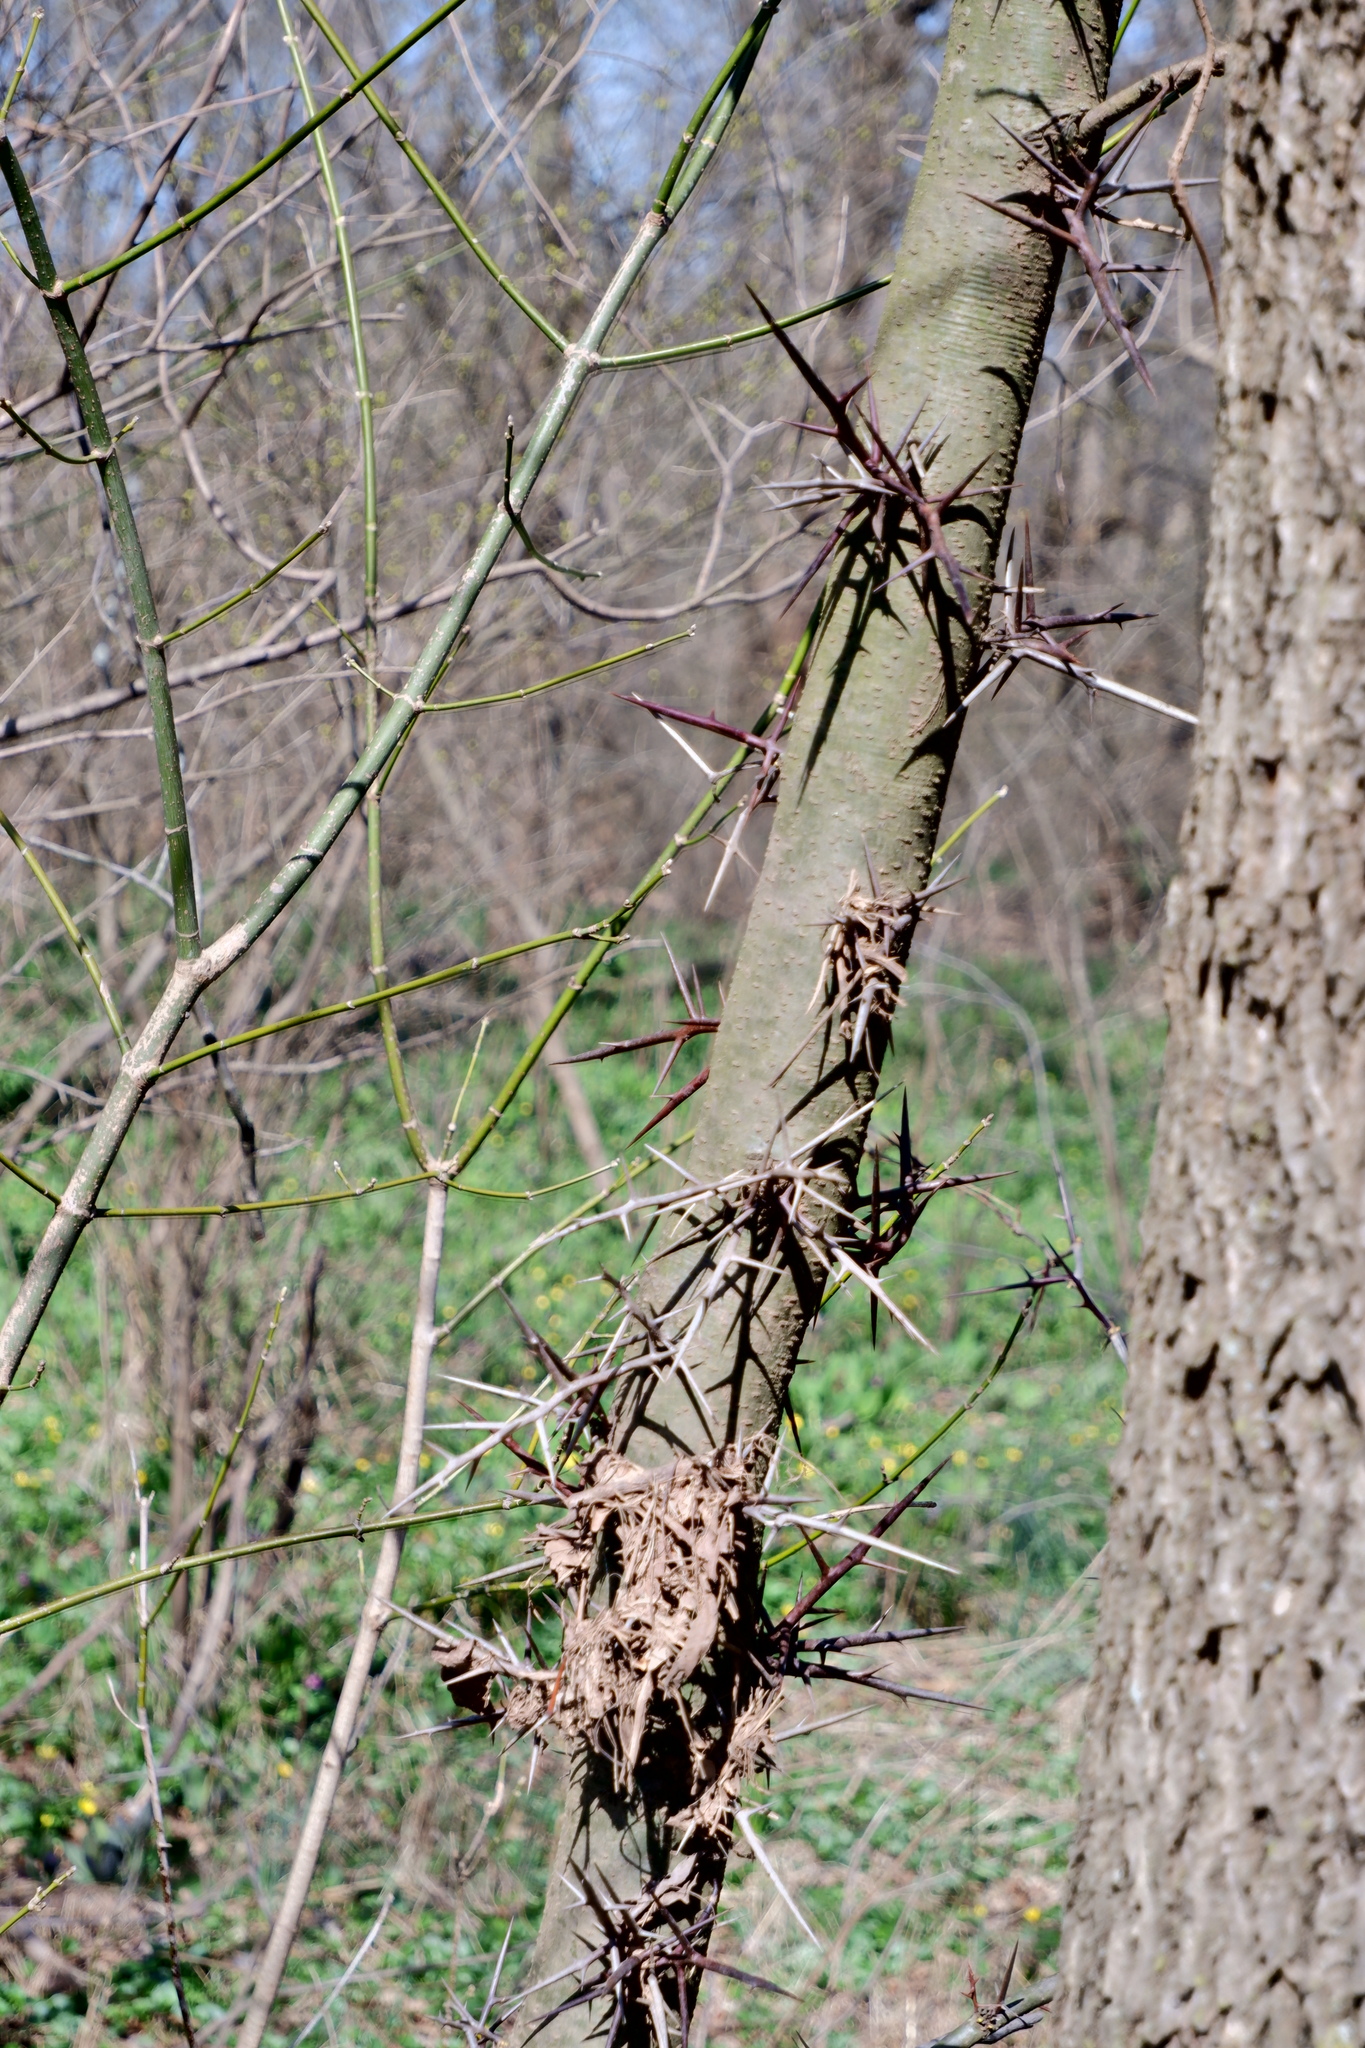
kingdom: Plantae
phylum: Tracheophyta
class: Magnoliopsida
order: Fabales
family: Fabaceae
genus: Gleditsia
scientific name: Gleditsia triacanthos
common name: Common honeylocust
